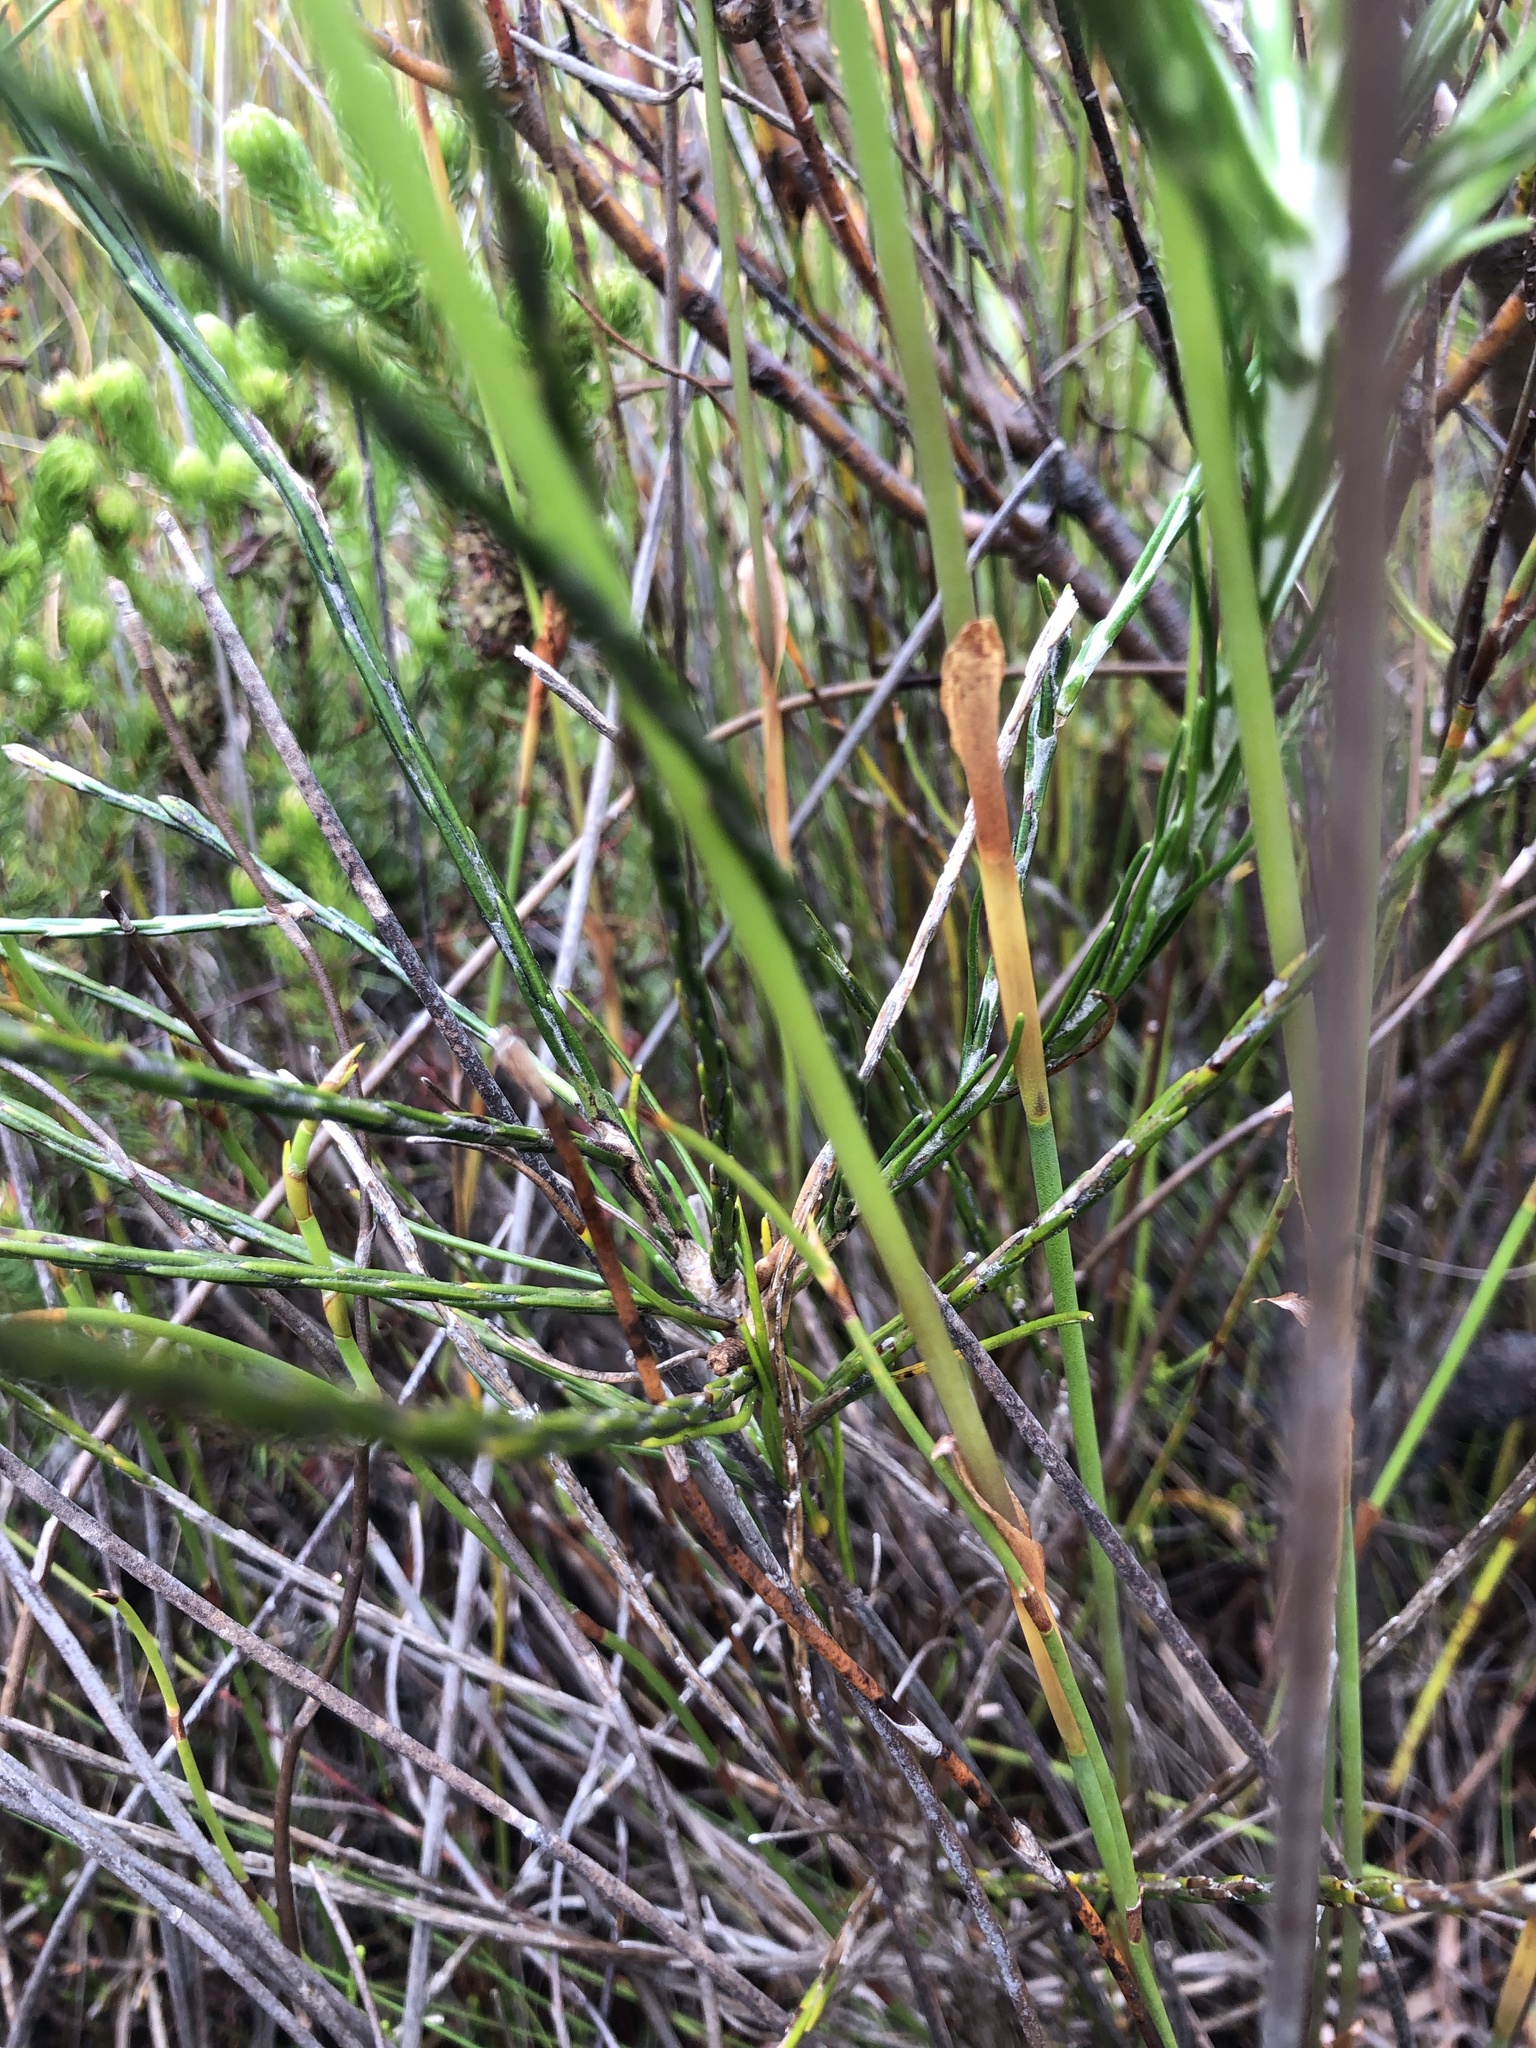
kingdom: Plantae
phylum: Tracheophyta
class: Magnoliopsida
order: Asterales
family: Asteraceae
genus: Edmondia
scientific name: Edmondia sesamoides
